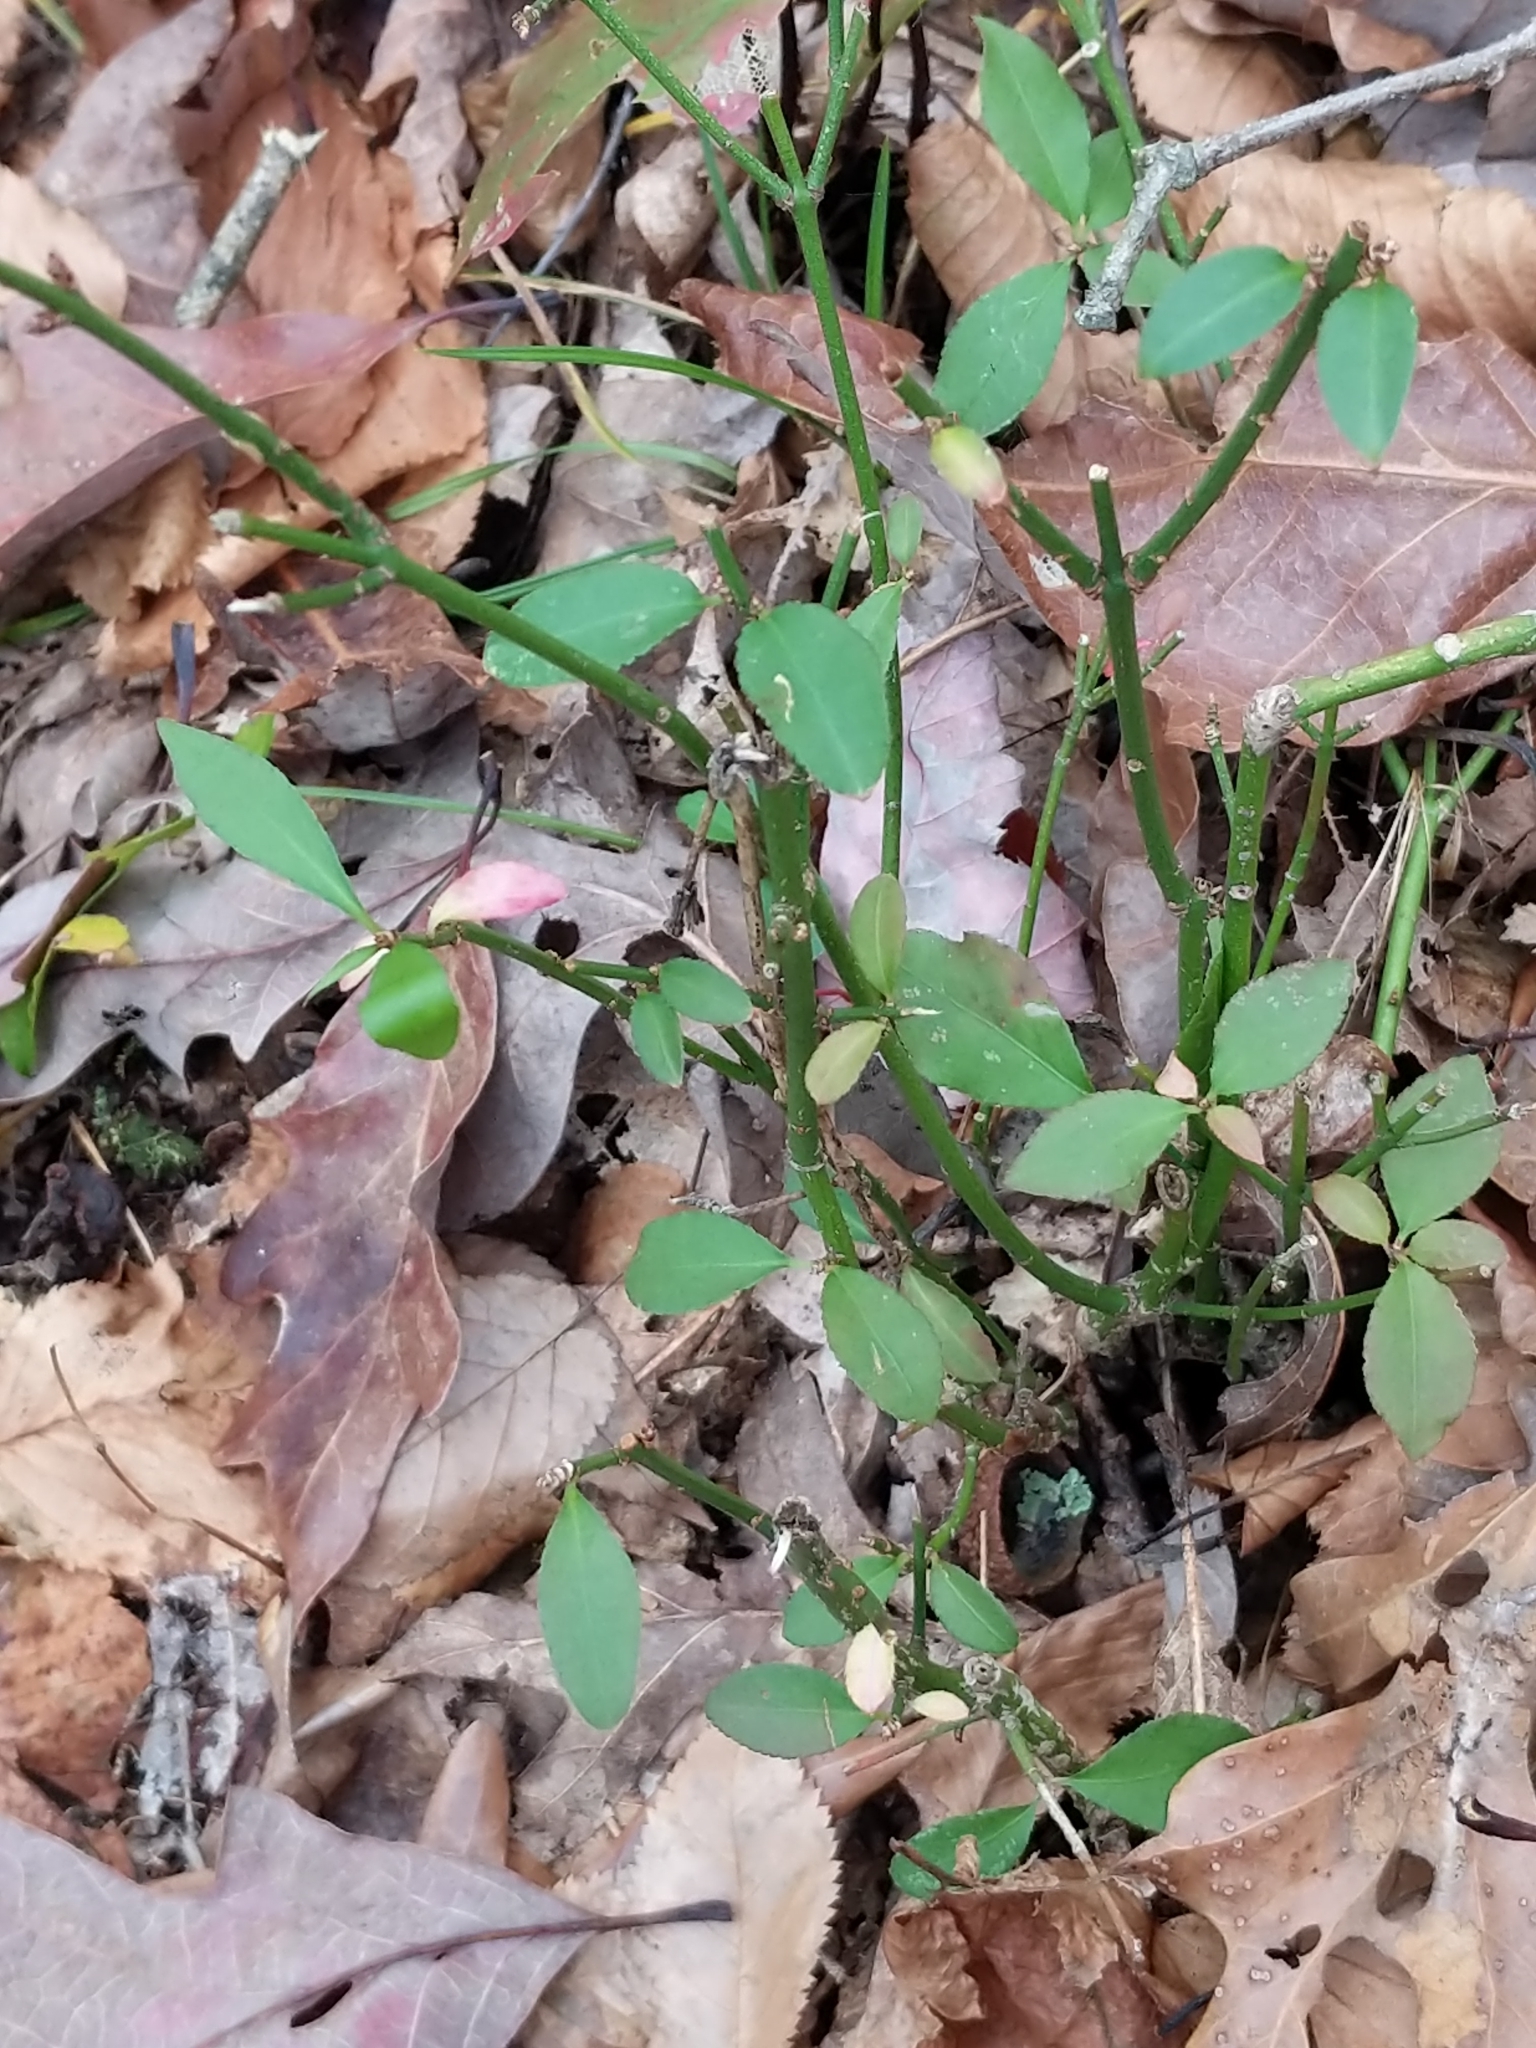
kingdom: Plantae
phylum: Tracheophyta
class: Magnoliopsida
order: Celastrales
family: Celastraceae
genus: Euonymus
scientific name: Euonymus alatus
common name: Winged euonymus
